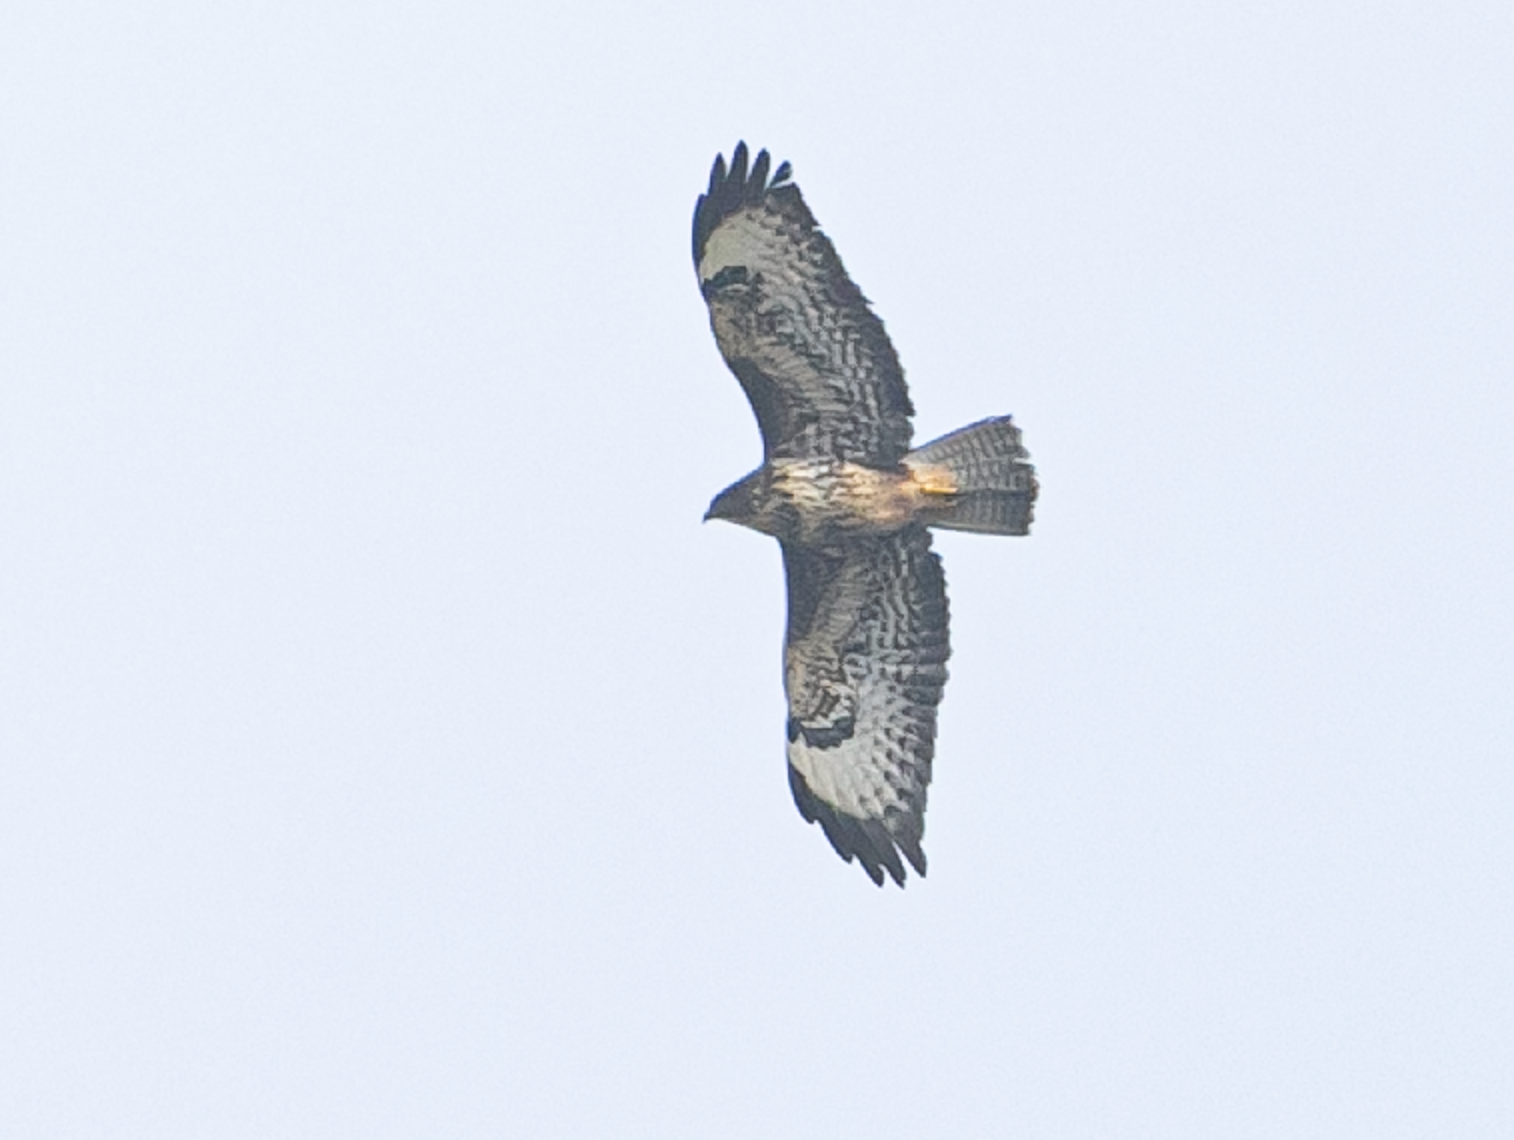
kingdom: Animalia
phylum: Chordata
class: Aves
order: Accipitriformes
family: Accipitridae
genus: Buteo
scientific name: Buteo buteo
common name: Common buzzard
